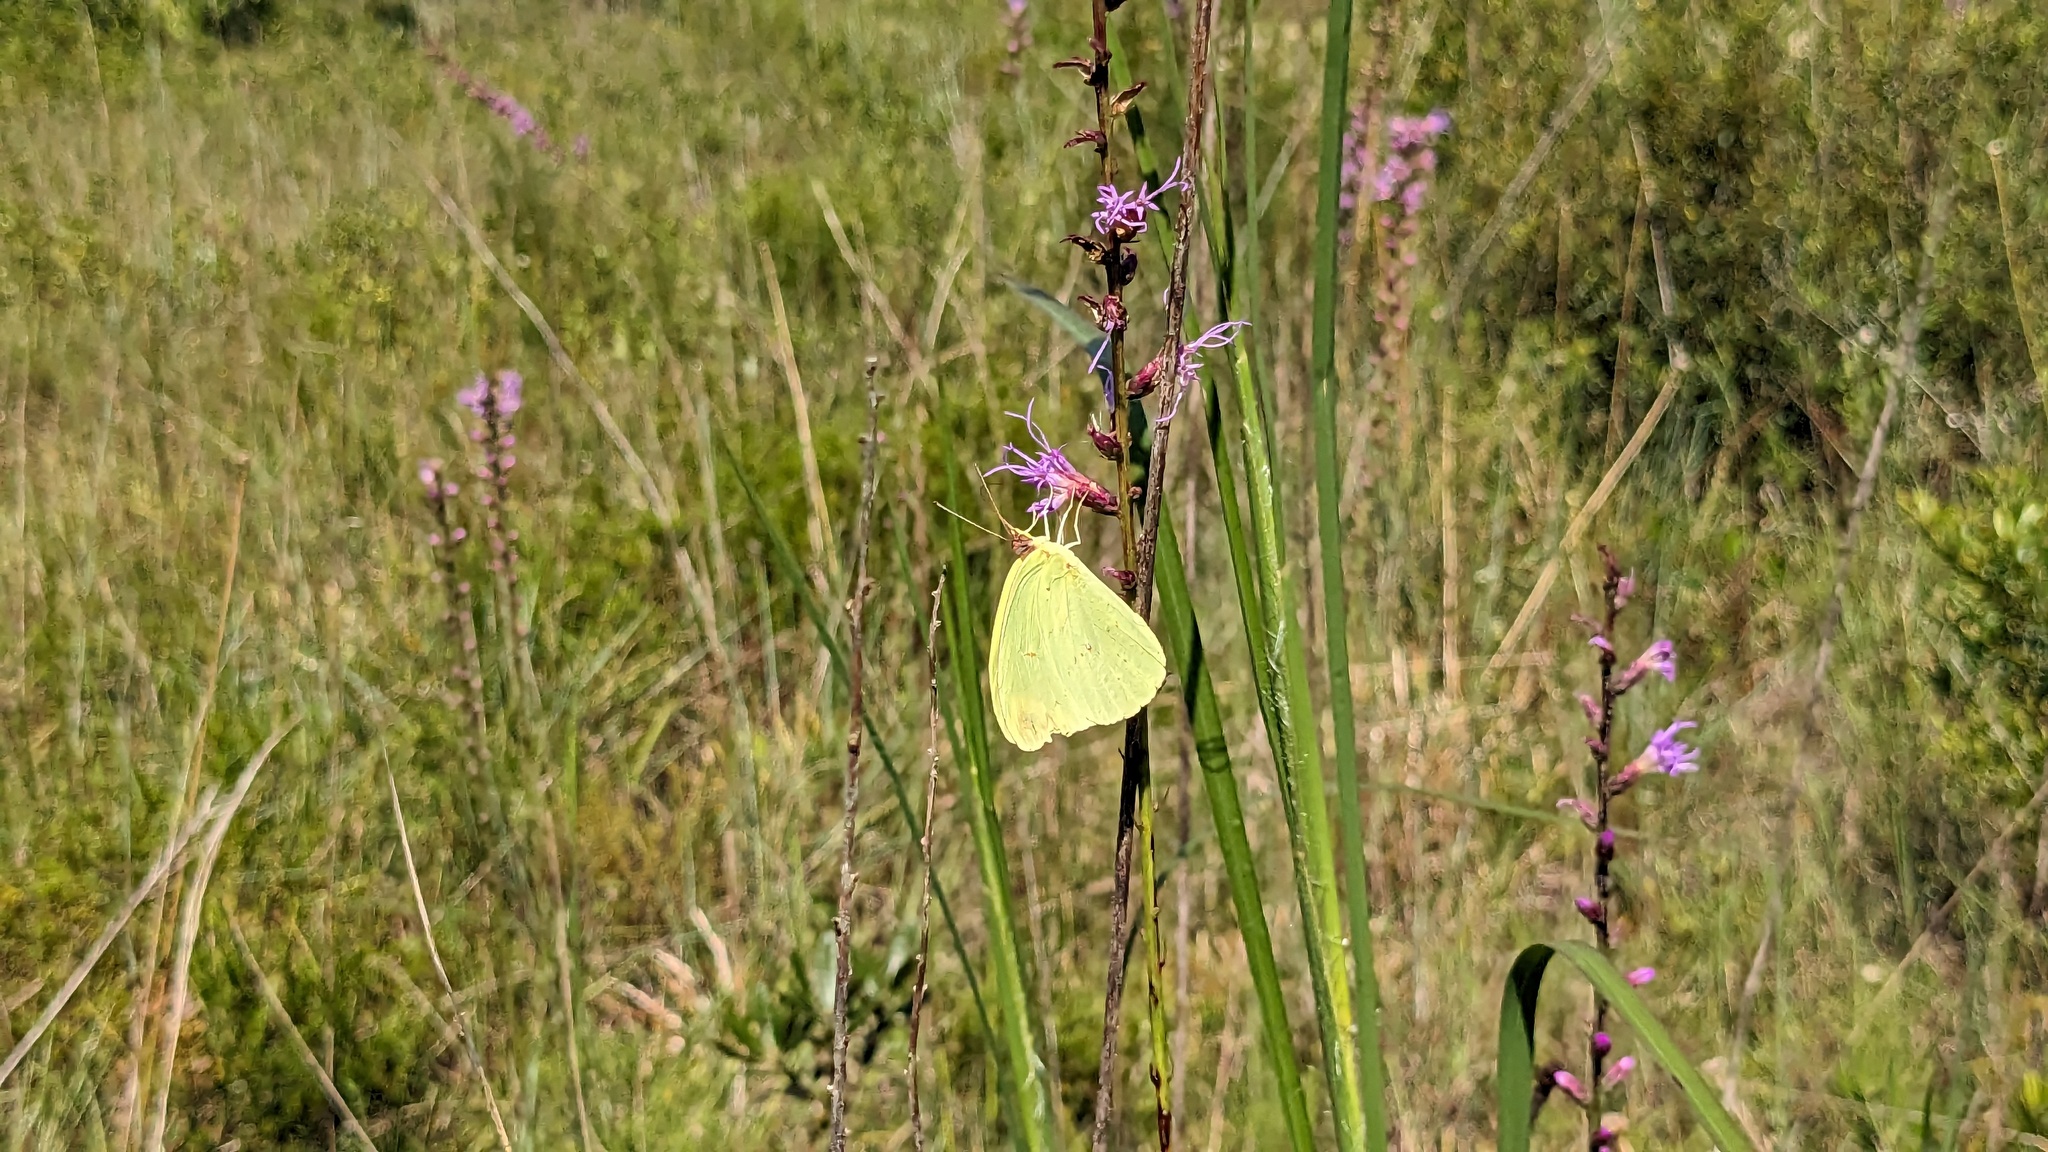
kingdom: Animalia
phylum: Arthropoda
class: Insecta
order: Lepidoptera
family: Pieridae
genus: Phoebis
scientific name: Phoebis sennae
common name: Cloudless sulphur
